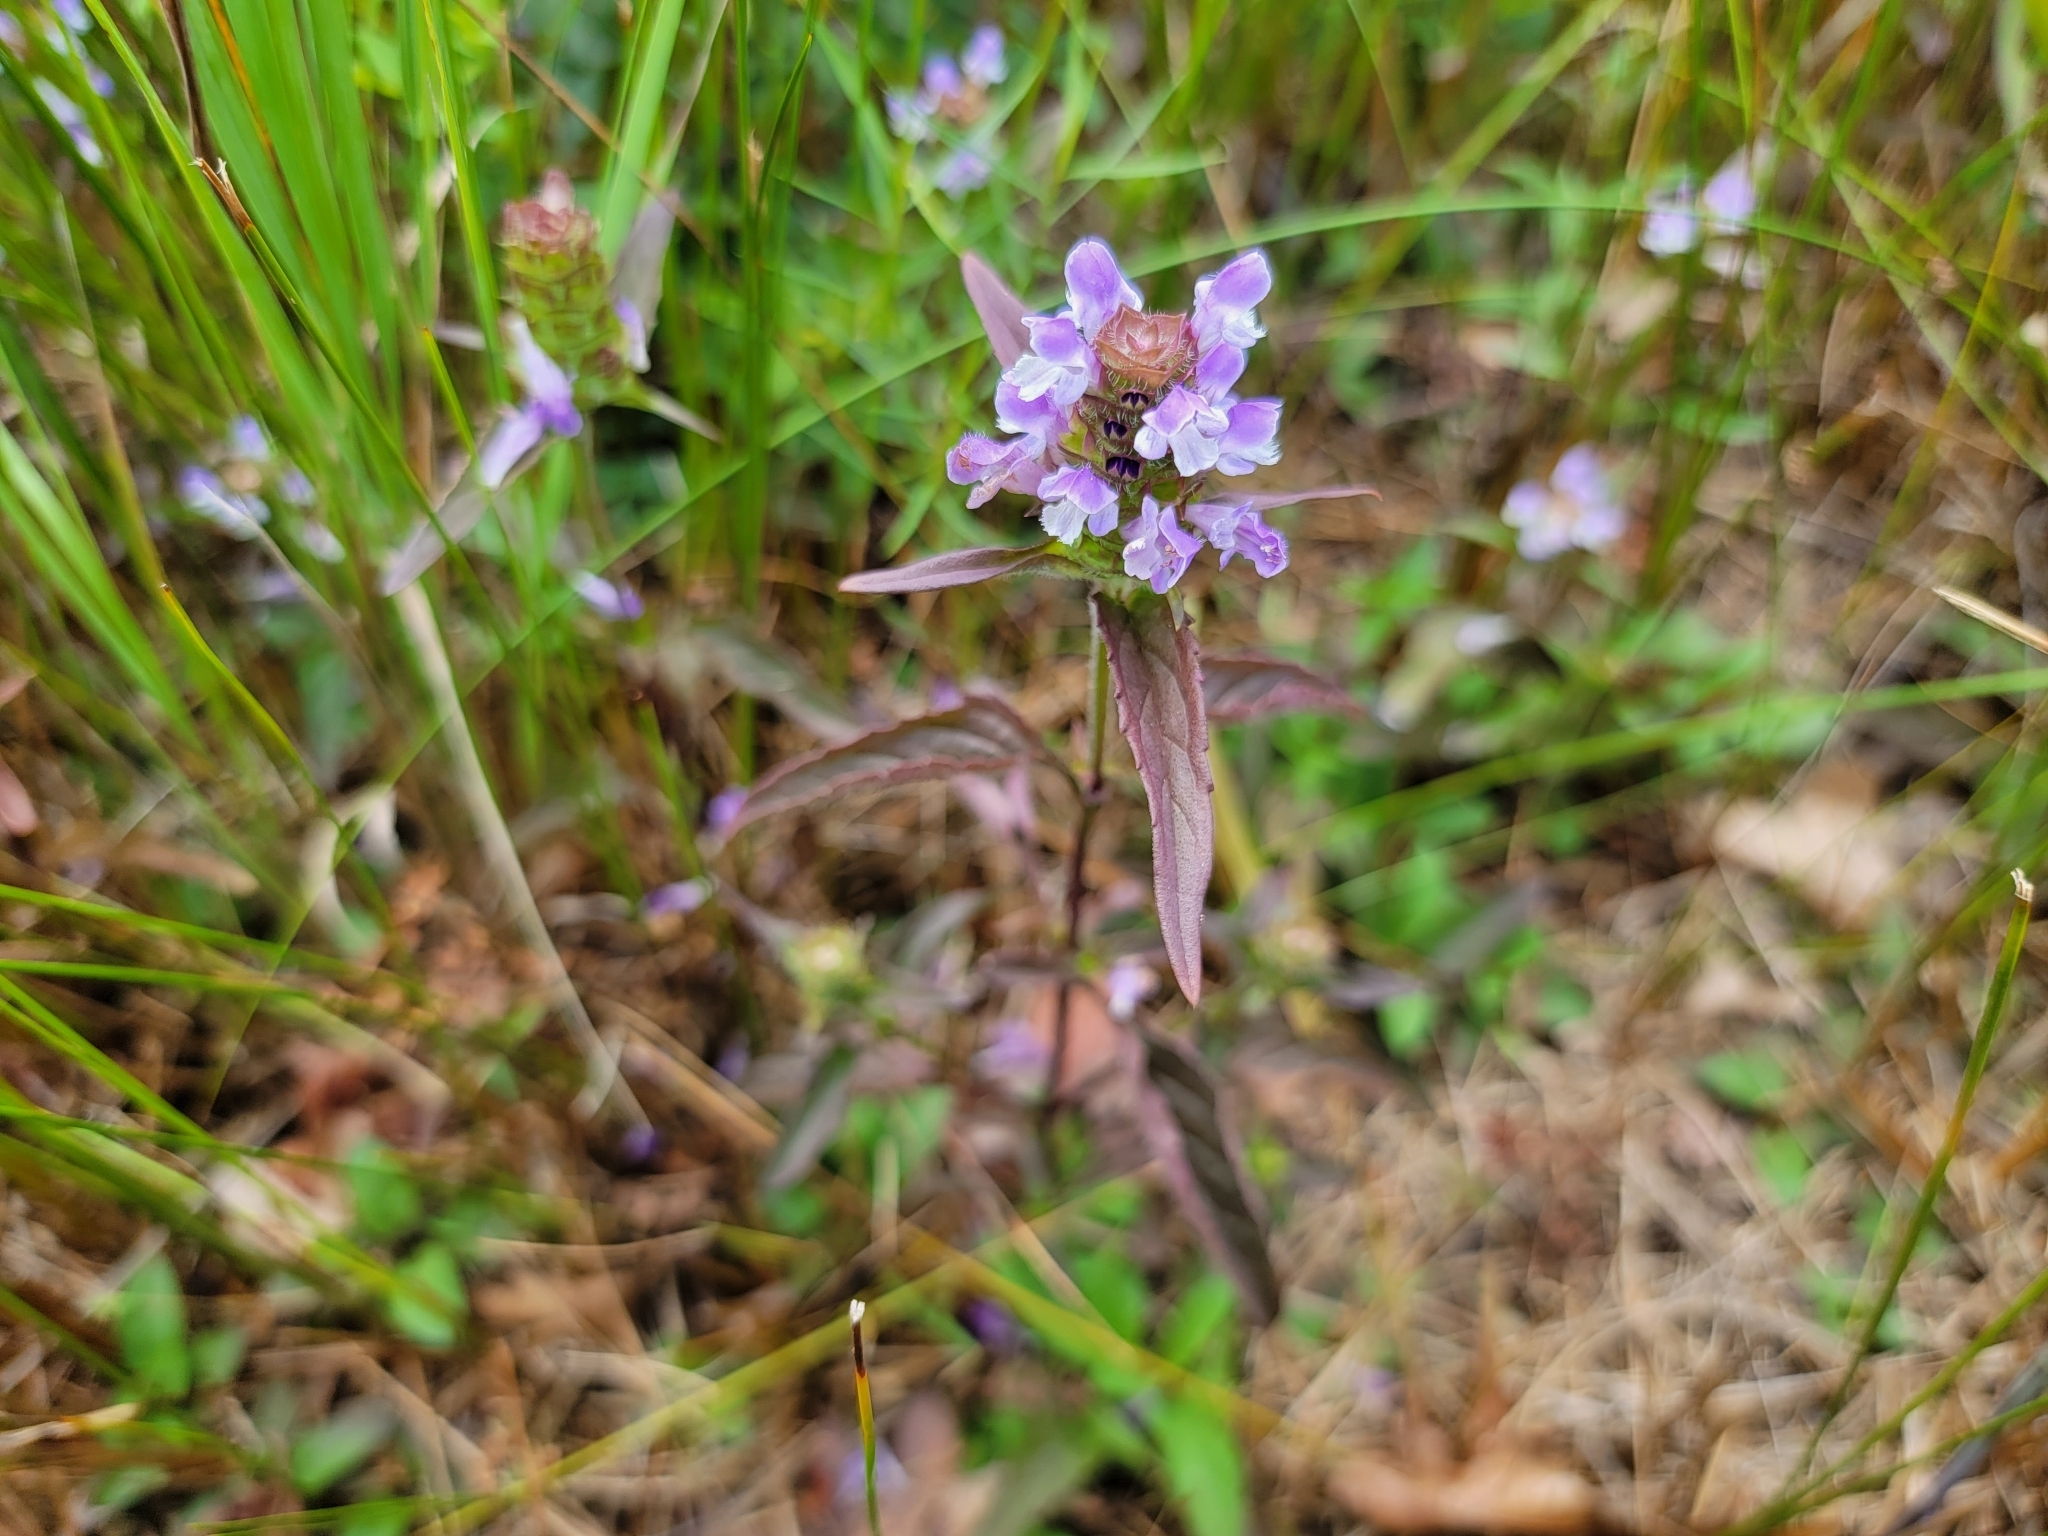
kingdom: Plantae
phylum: Tracheophyta
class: Magnoliopsida
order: Lamiales
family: Lamiaceae
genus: Prunella
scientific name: Prunella vulgaris
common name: Heal-all
